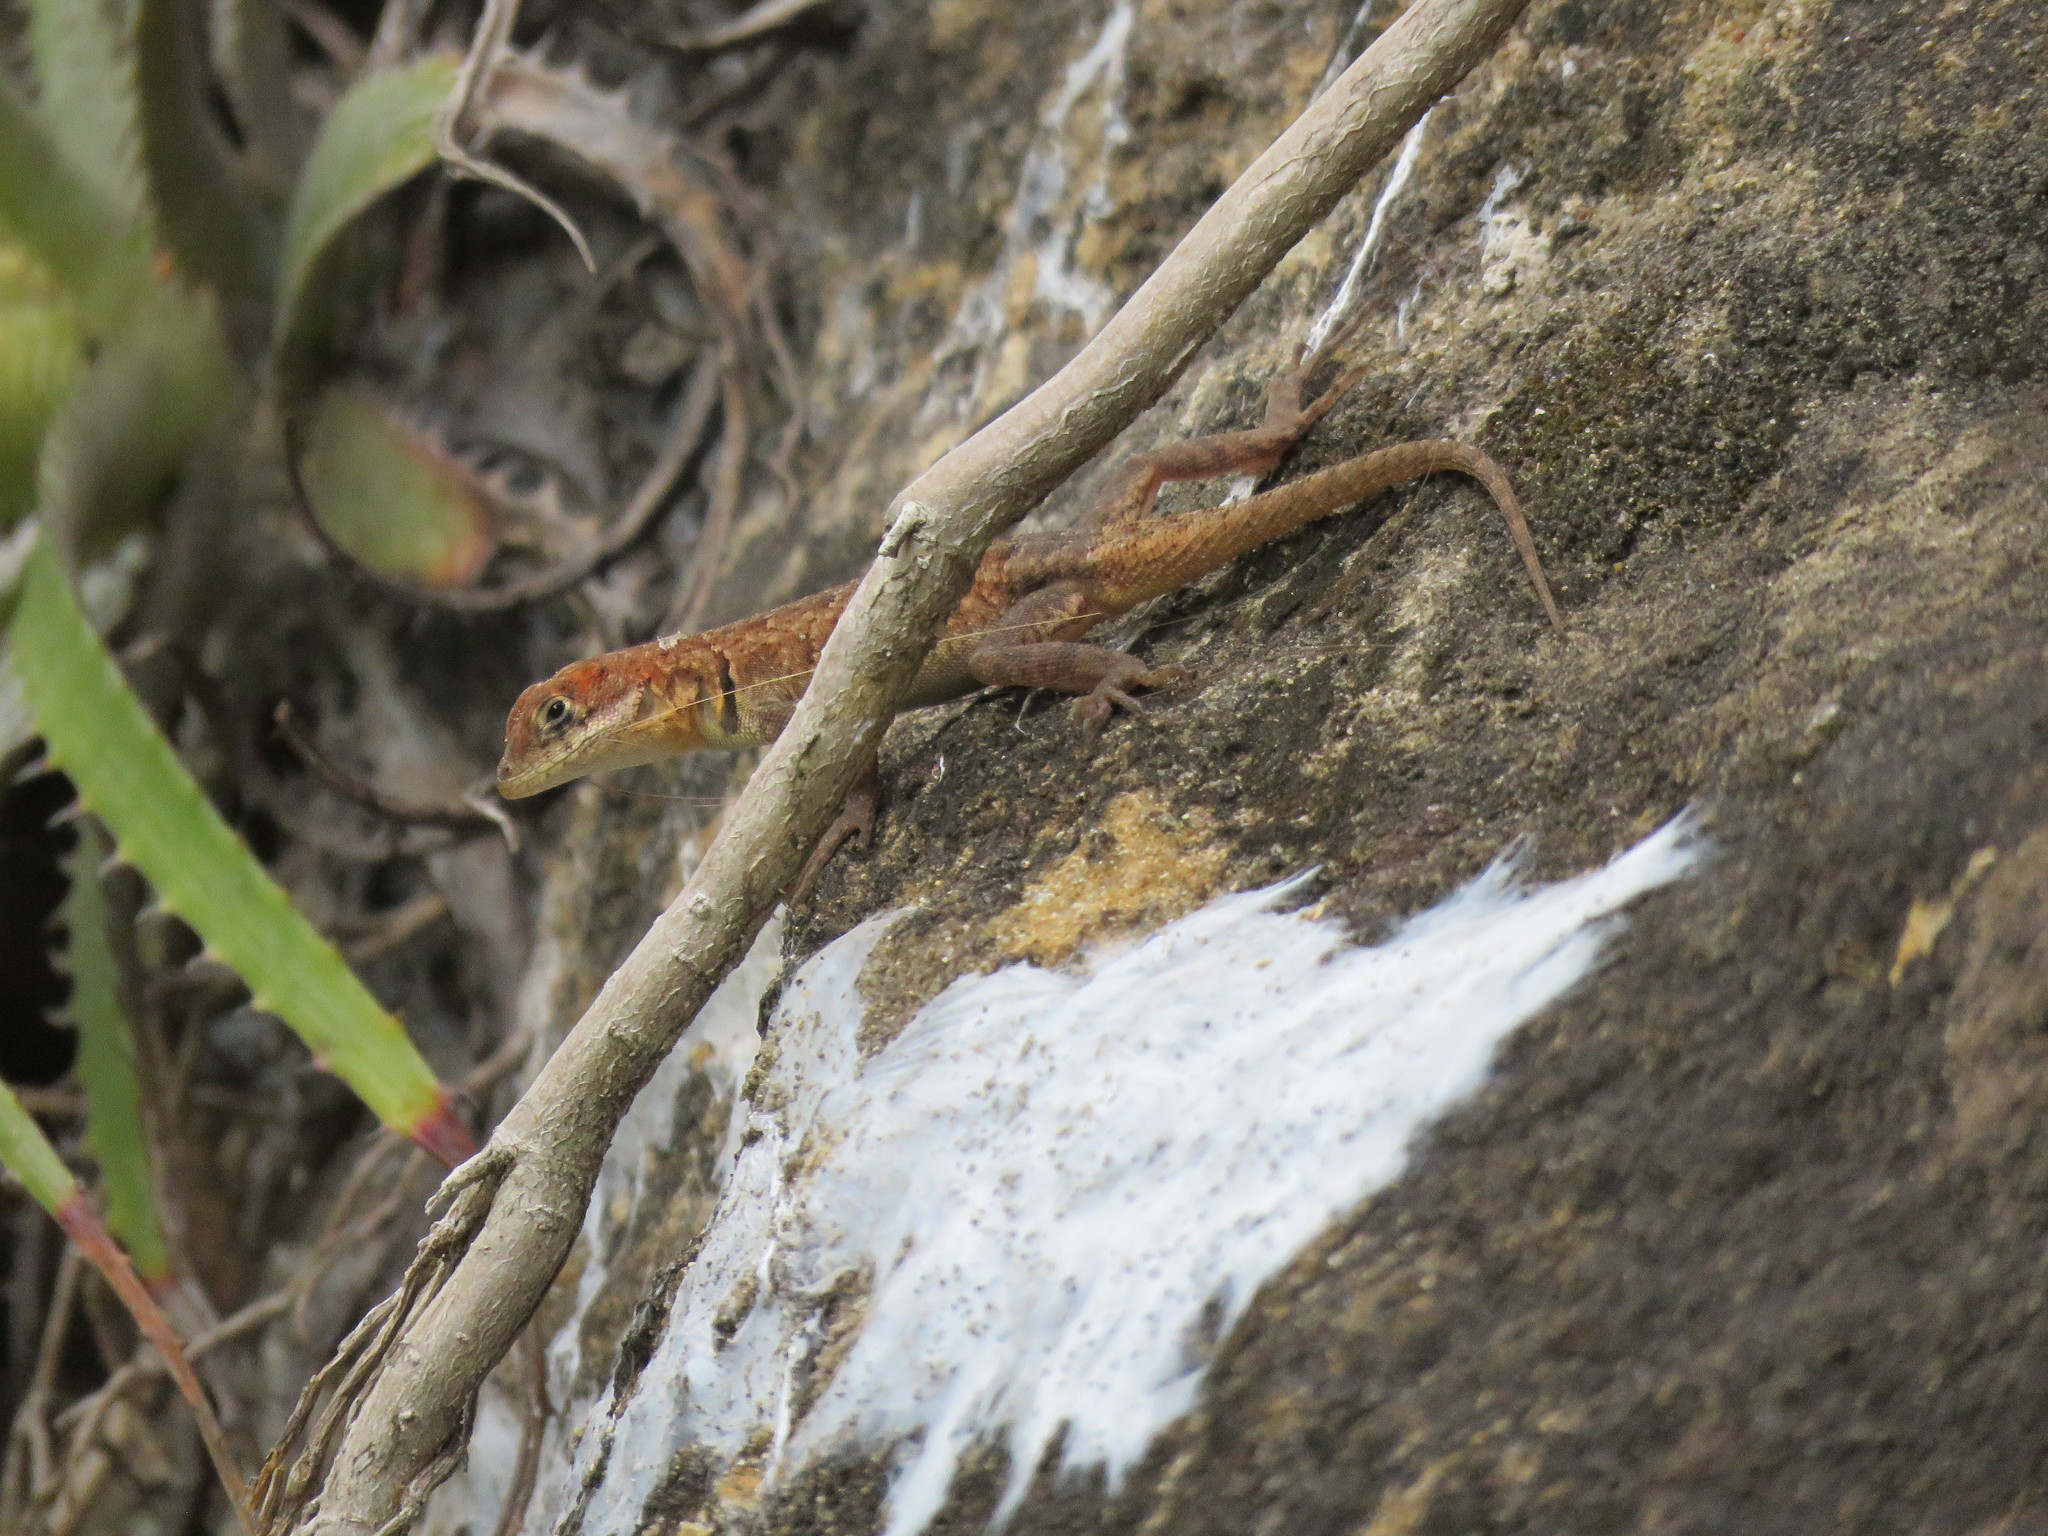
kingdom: Animalia
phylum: Chordata
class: Squamata
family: Tropiduridae
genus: Tropidurus
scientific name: Tropidurus etheridgei
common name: Etheridge's lava lizard
